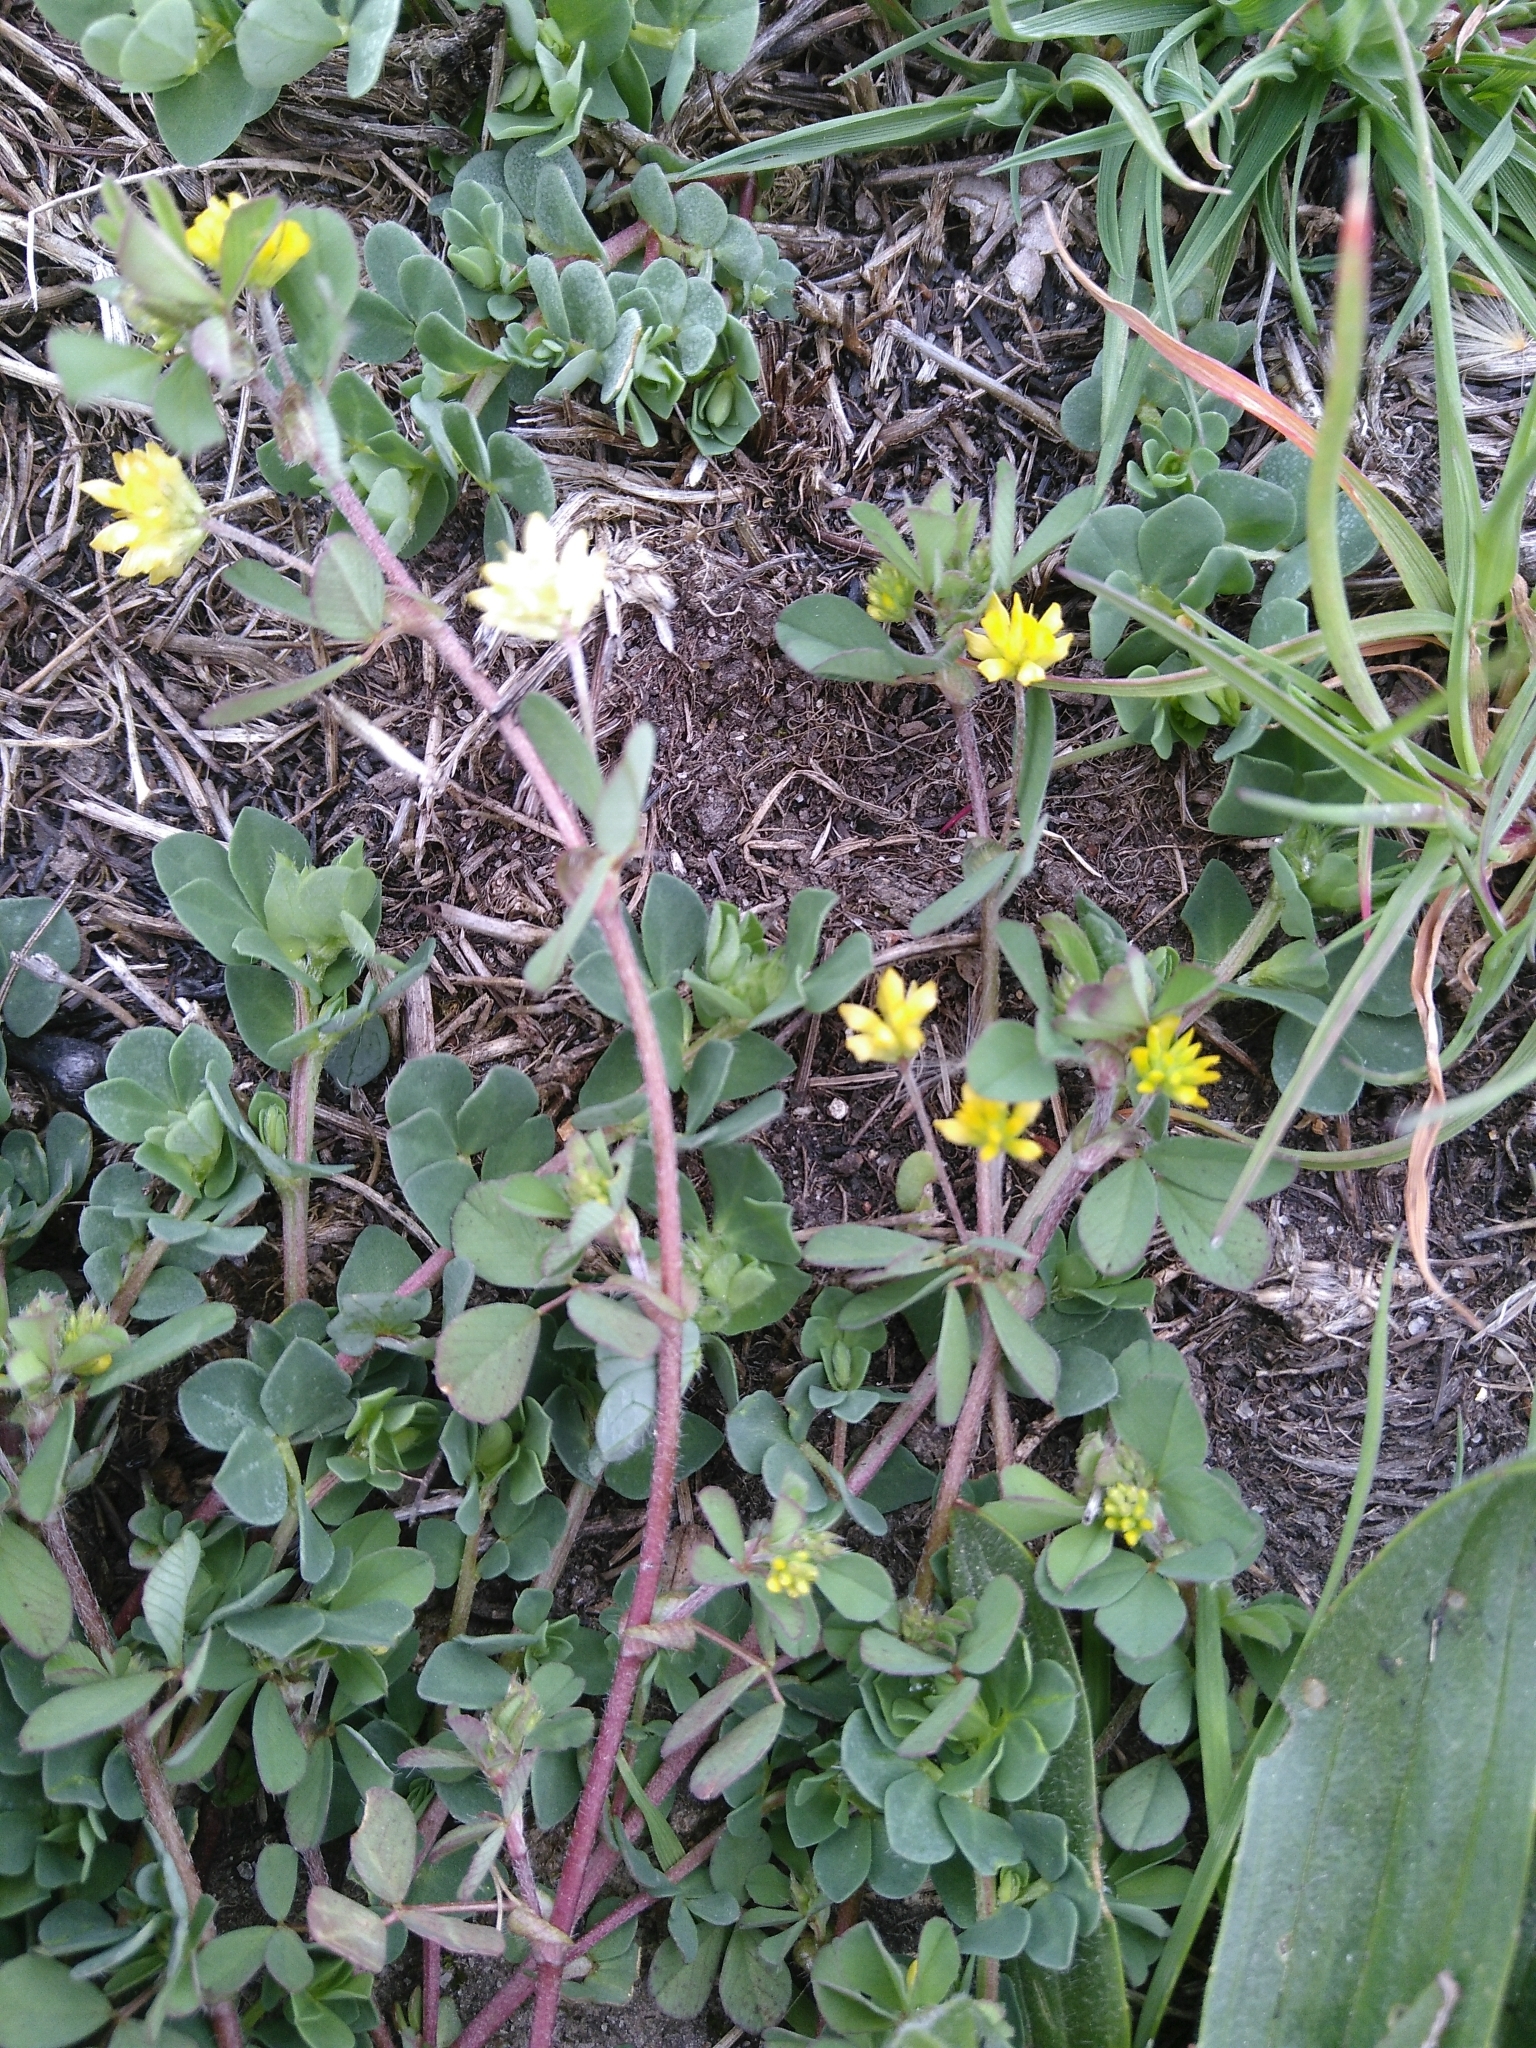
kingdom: Plantae
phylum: Tracheophyta
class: Magnoliopsida
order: Fabales
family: Fabaceae
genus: Trifolium
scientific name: Trifolium dubium
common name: Suckling clover
